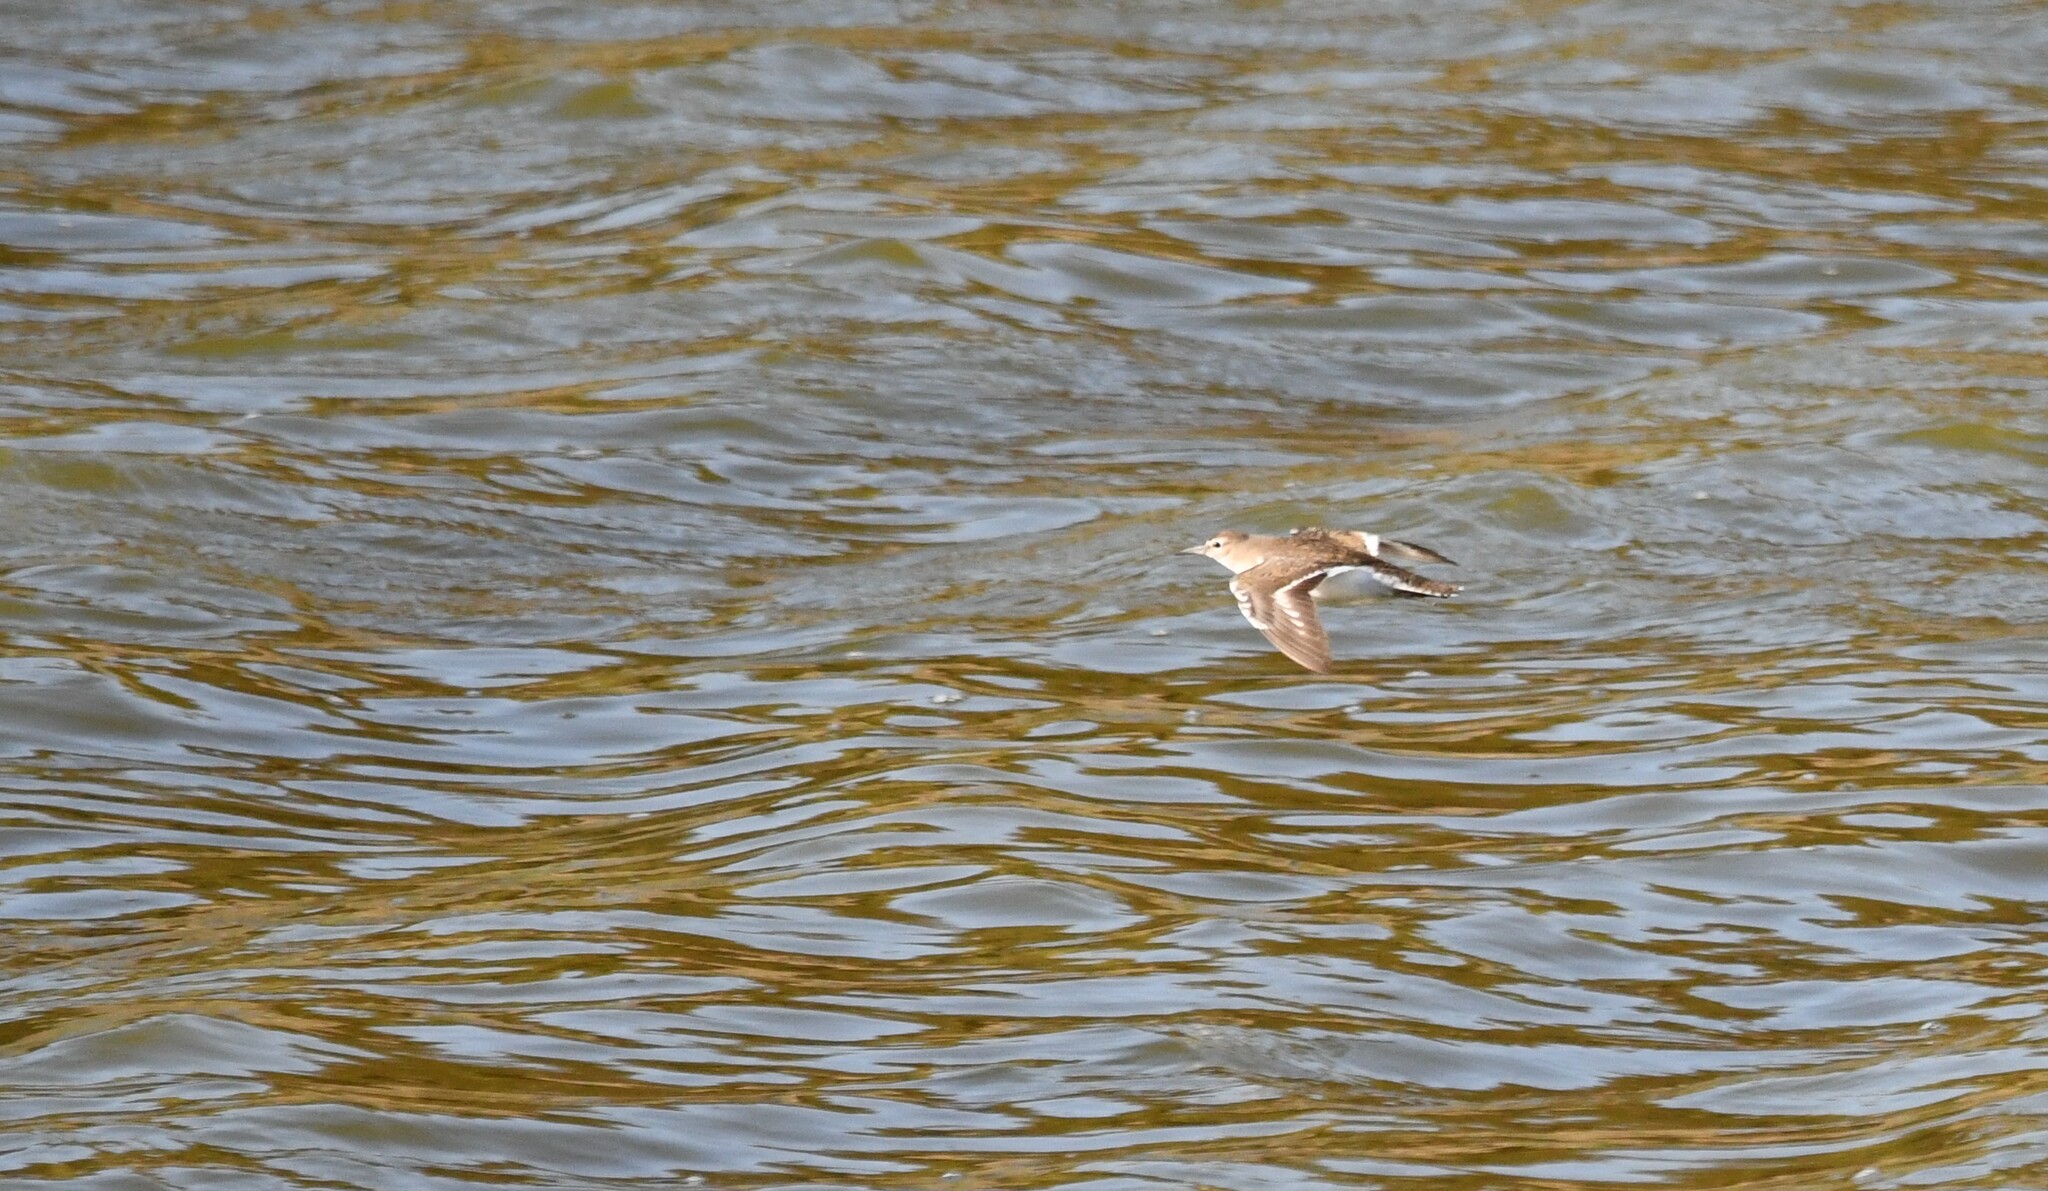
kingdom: Animalia
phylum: Chordata
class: Aves
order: Charadriiformes
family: Scolopacidae
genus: Actitis
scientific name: Actitis hypoleucos
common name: Common sandpiper
